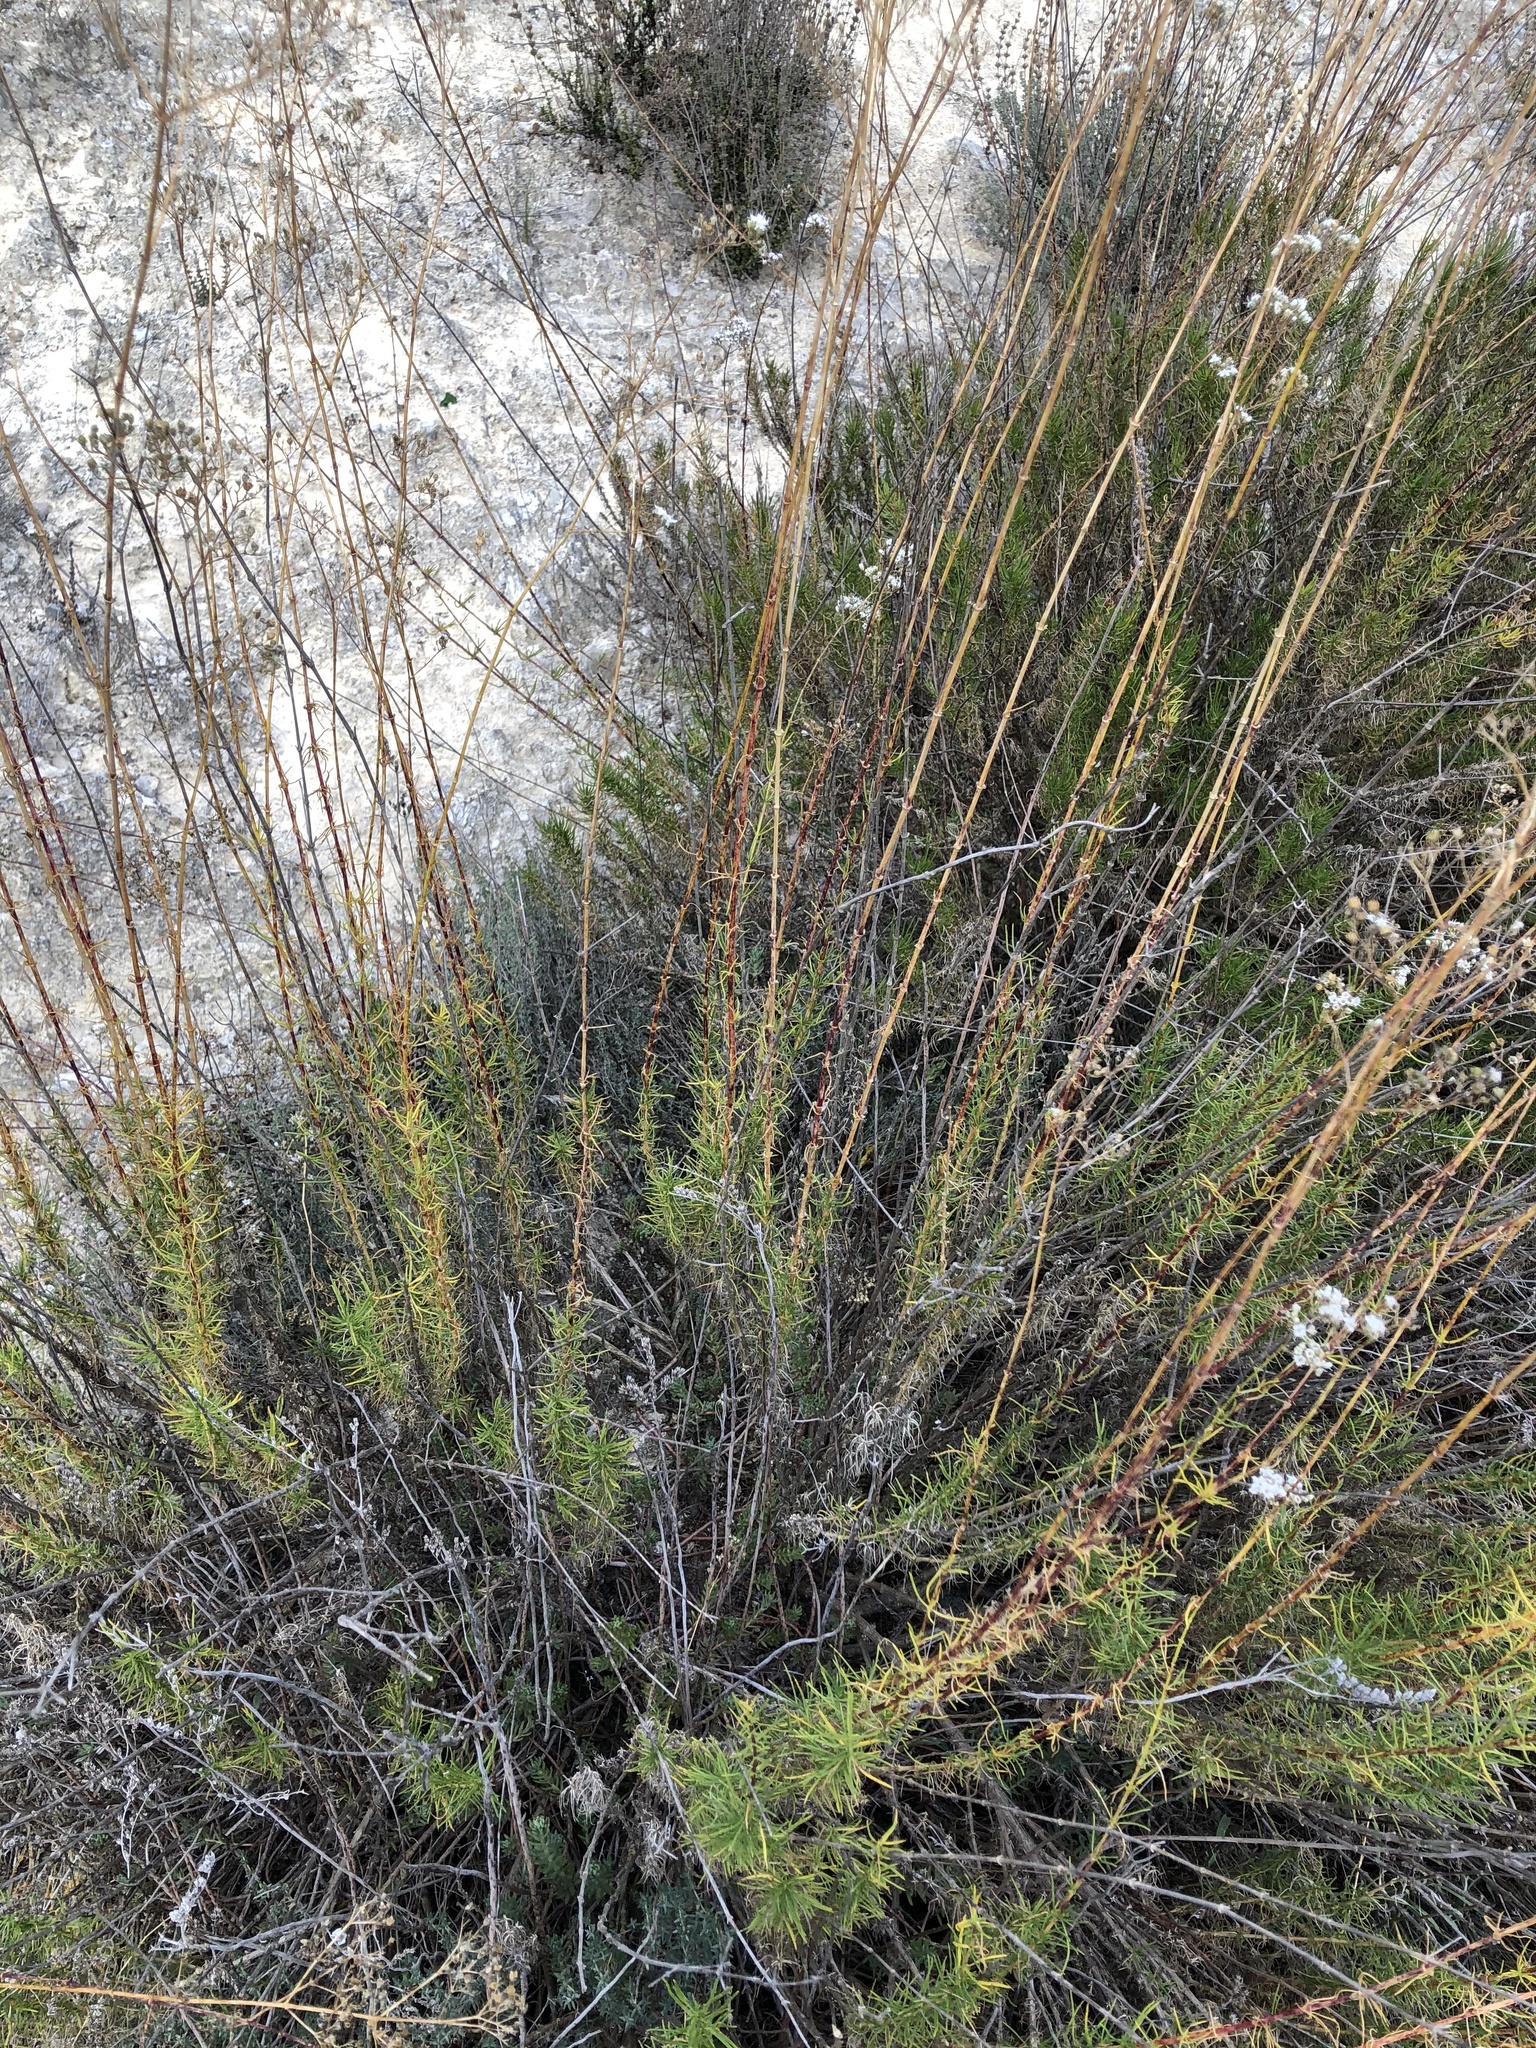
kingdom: Plantae
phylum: Tracheophyta
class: Magnoliopsida
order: Caryophyllales
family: Caryophyllaceae
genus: Gypsophila
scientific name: Gypsophila struthium
